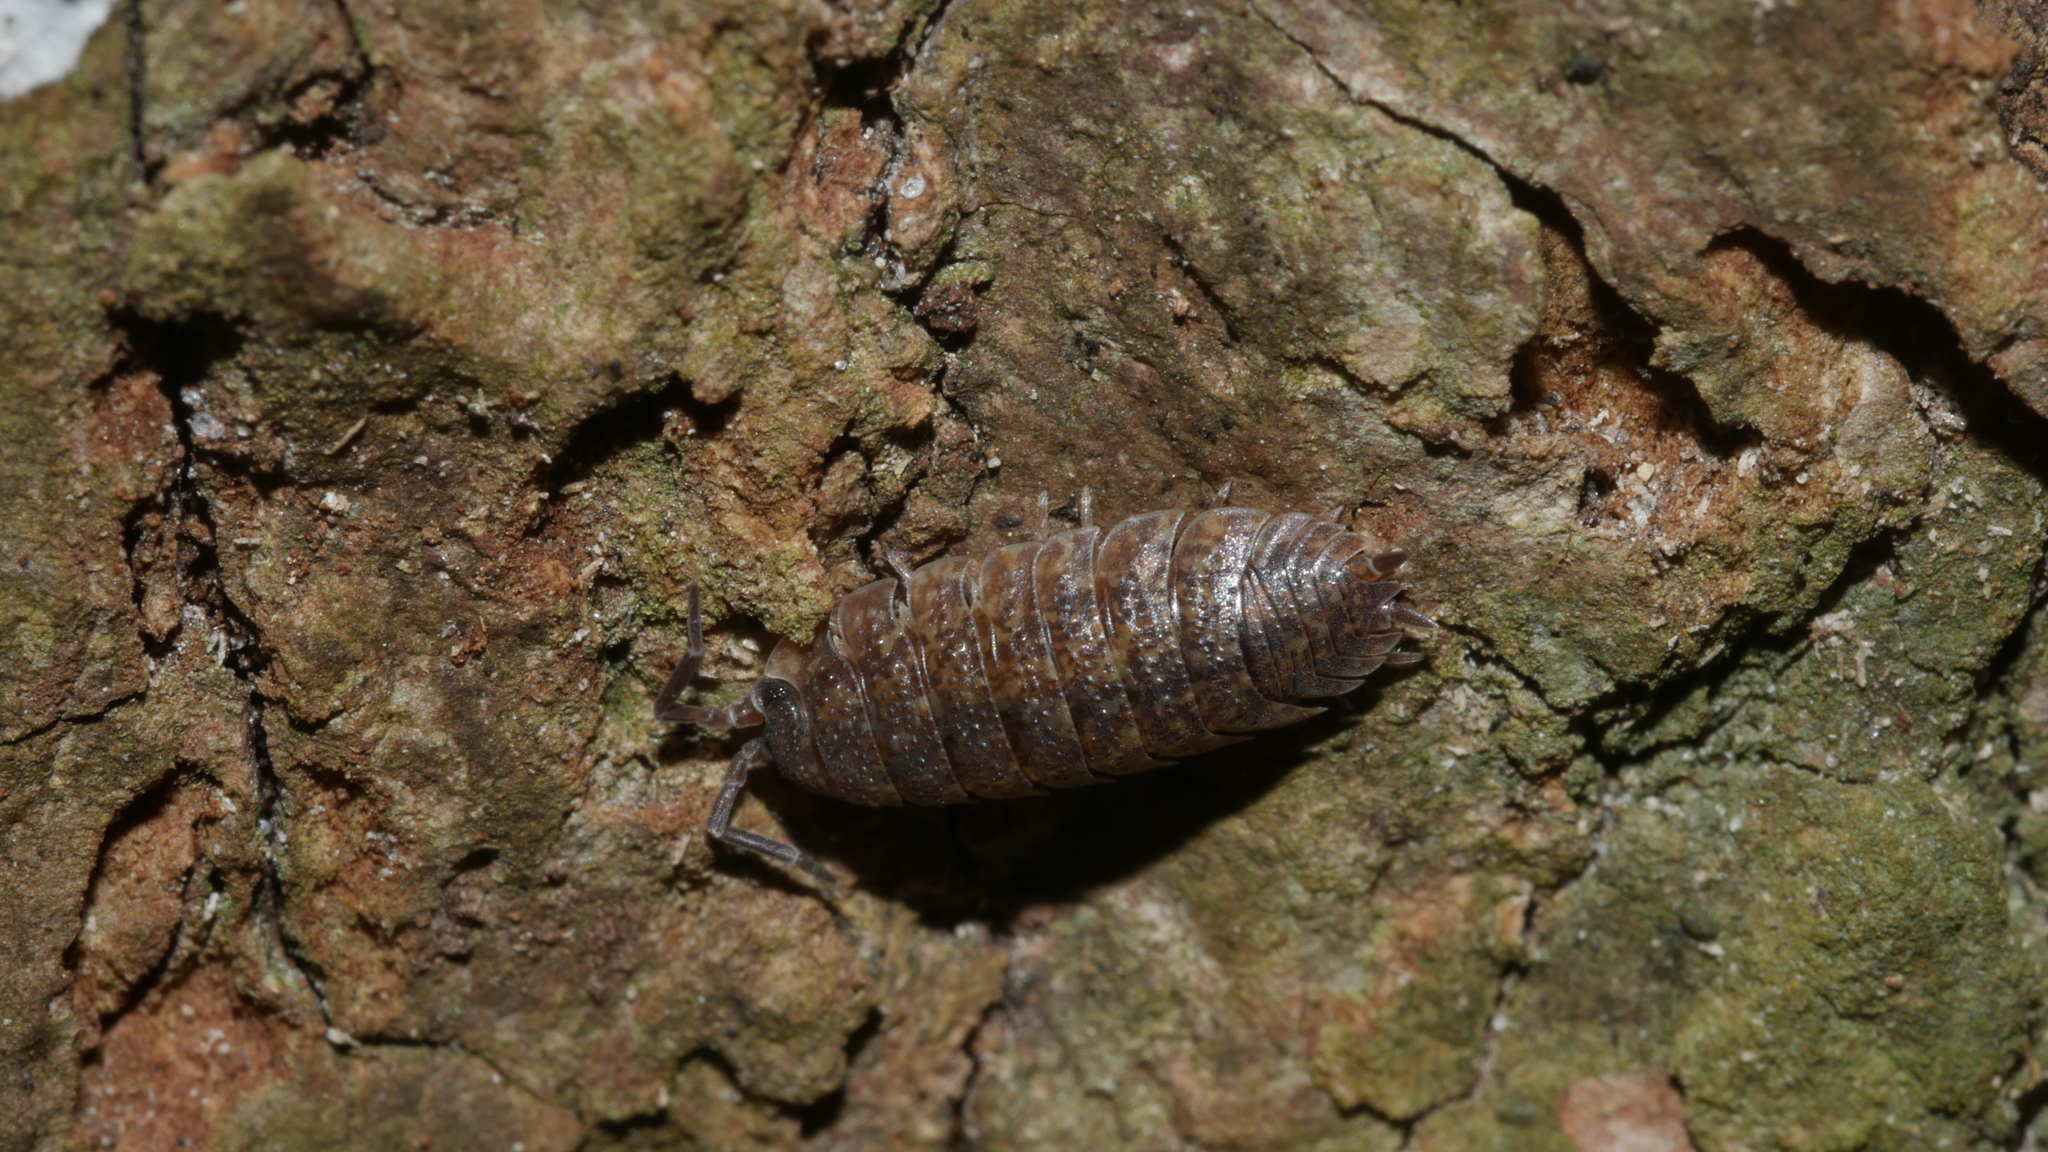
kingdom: Animalia
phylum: Arthropoda
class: Malacostraca
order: Isopoda
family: Porcellionidae
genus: Porcellio
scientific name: Porcellio scaber
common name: Common rough woodlouse
